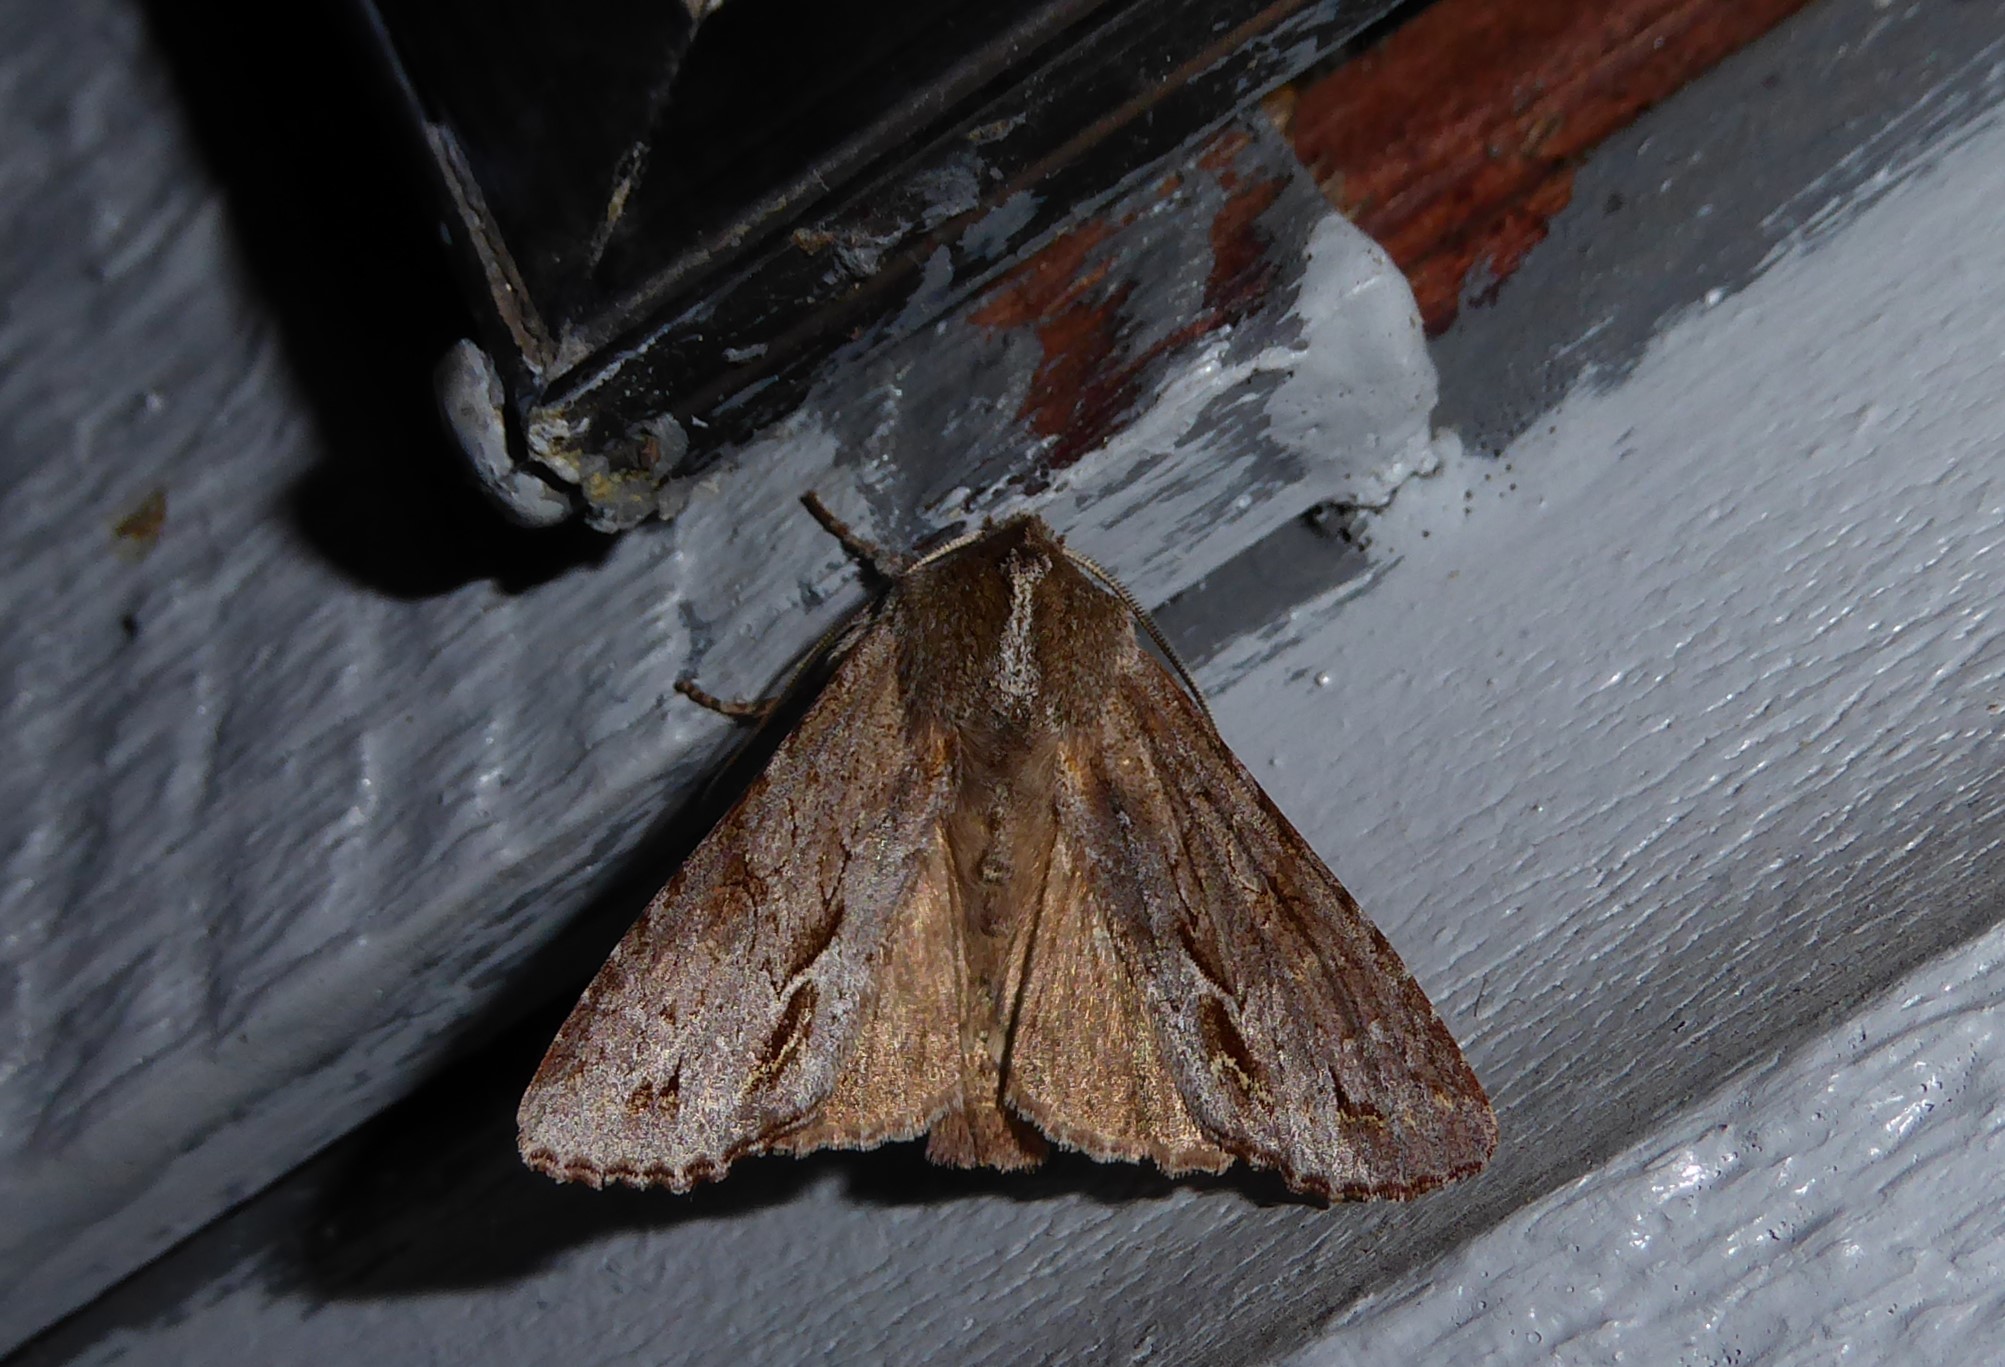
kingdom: Animalia
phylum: Arthropoda
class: Insecta
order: Lepidoptera
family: Noctuidae
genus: Ichneutica
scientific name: Ichneutica
